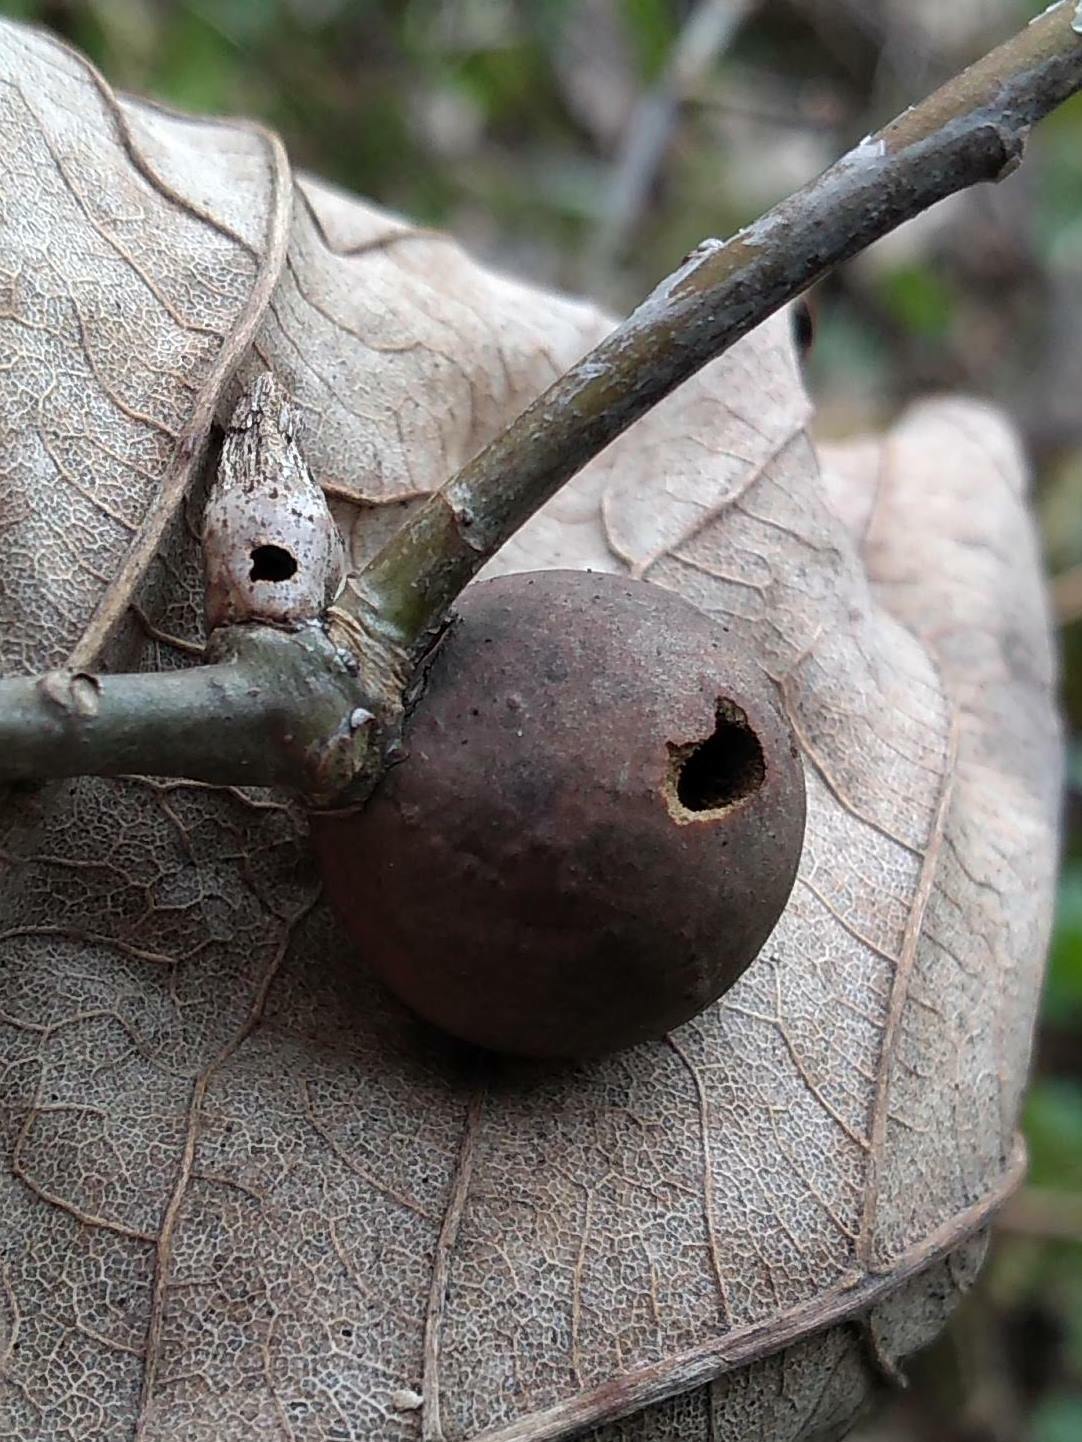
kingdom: Animalia
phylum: Arthropoda
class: Insecta
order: Hymenoptera
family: Cynipidae
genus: Andricus
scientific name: Andricus kollari
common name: Marble gall
